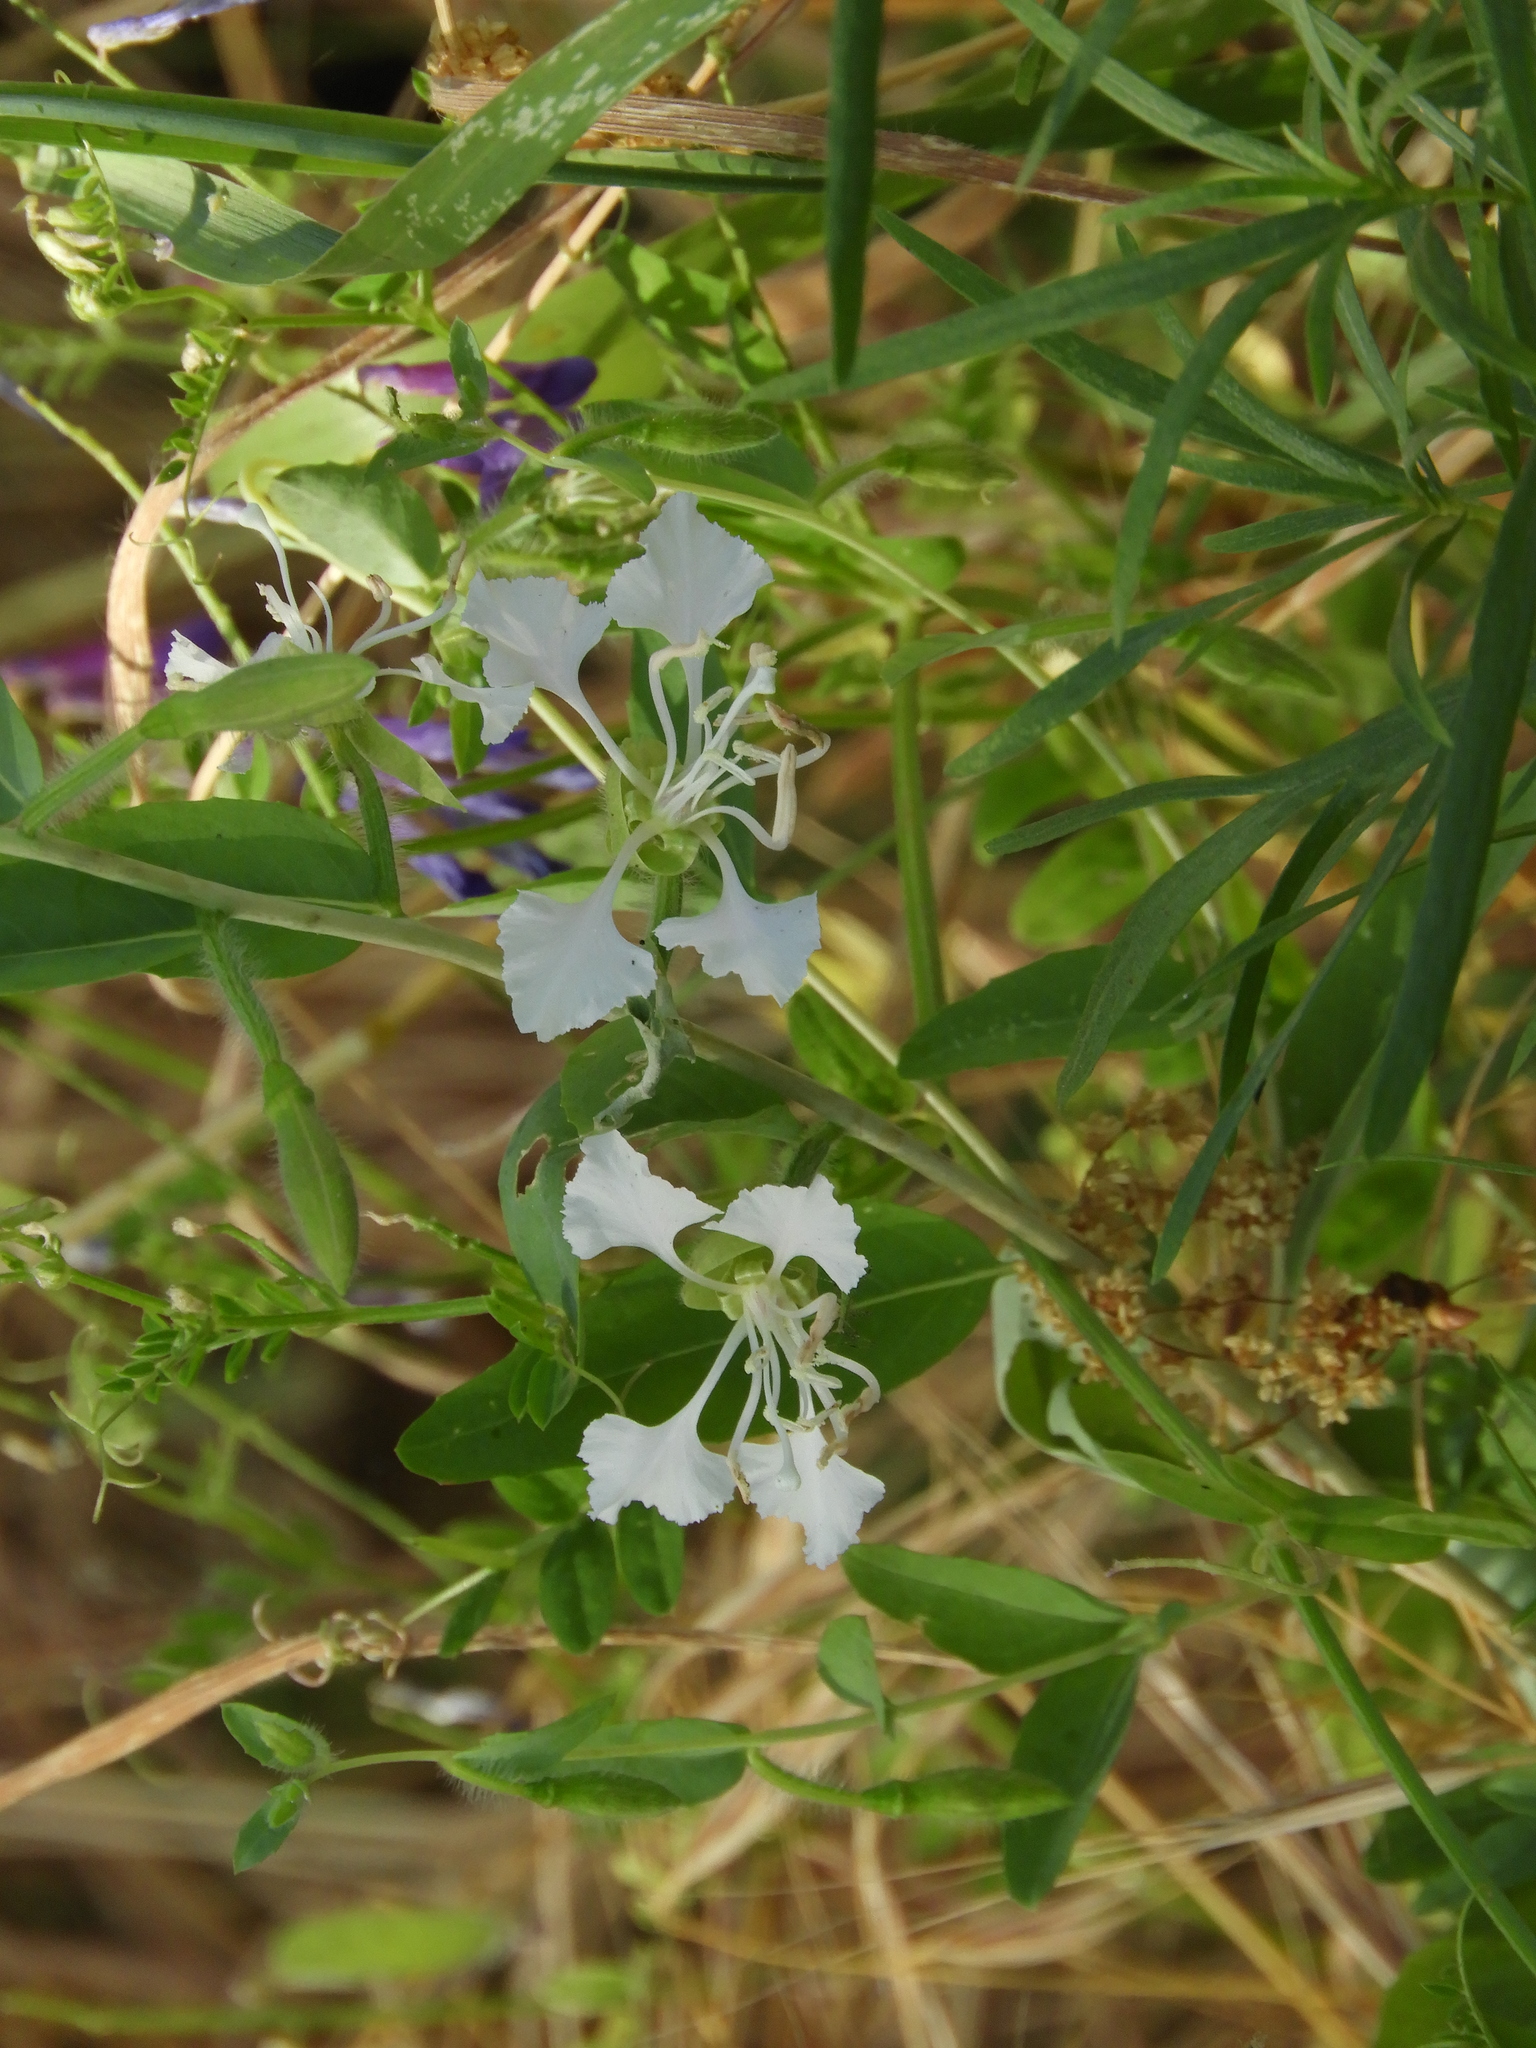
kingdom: Plantae
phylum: Tracheophyta
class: Magnoliopsida
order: Myrtales
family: Onagraceae
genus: Clarkia
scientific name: Clarkia unguiculata
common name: Clarkia
